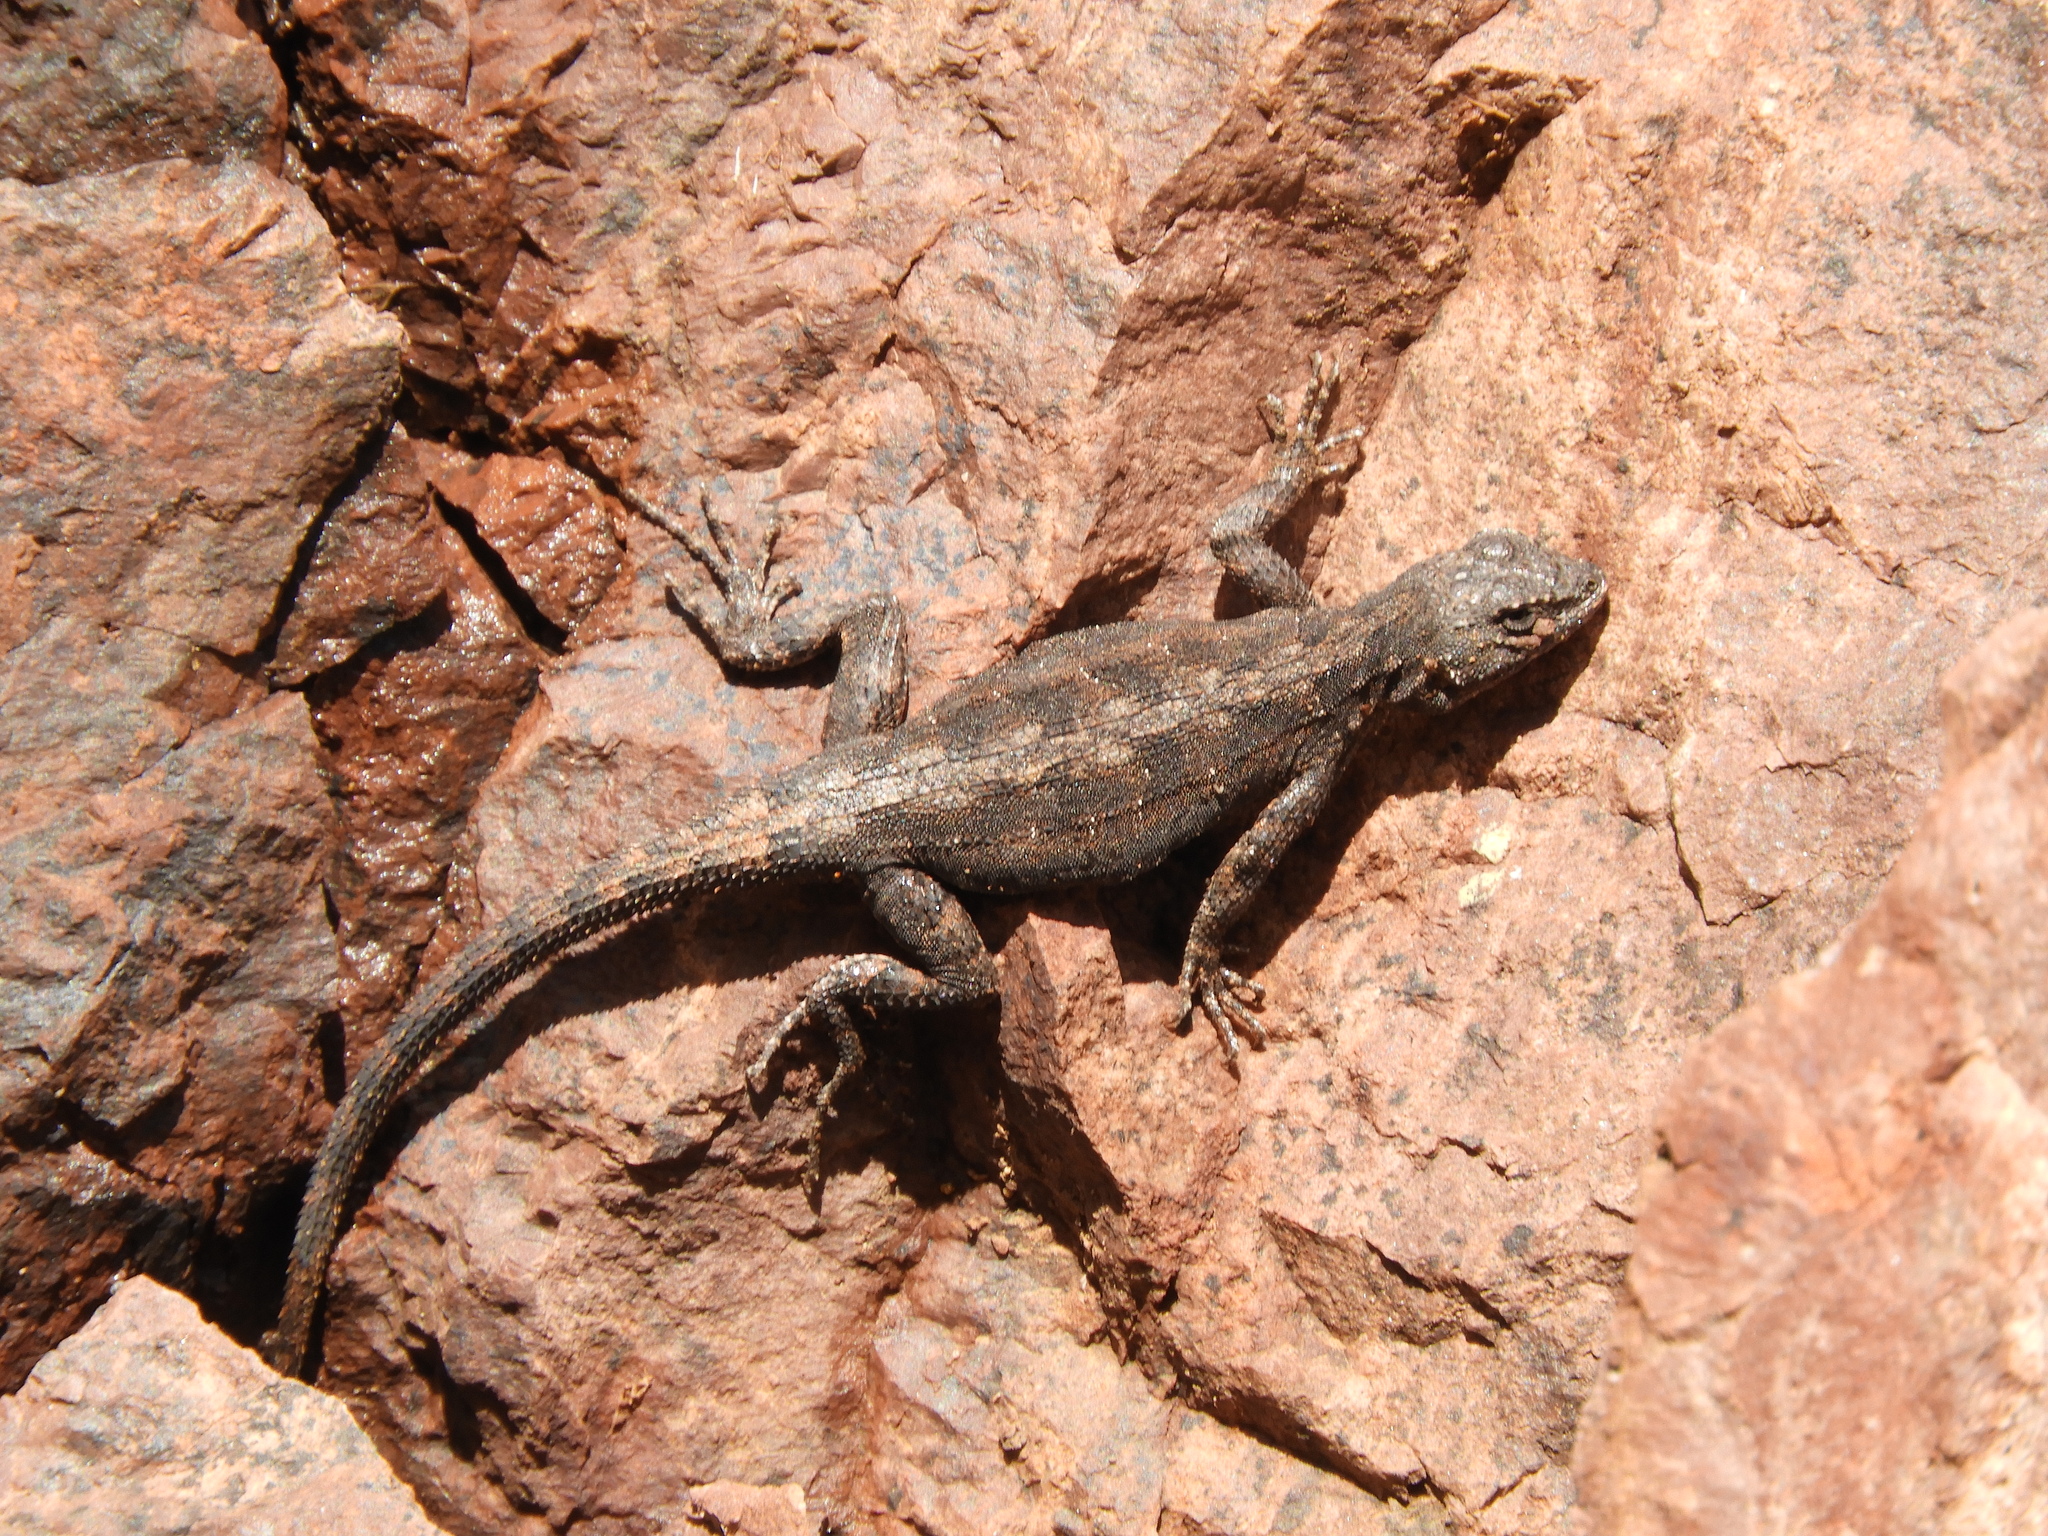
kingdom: Animalia
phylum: Chordata
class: Squamata
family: Phrynosomatidae
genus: Urosaurus
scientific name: Urosaurus ornatus
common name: Ornate tree lizard
